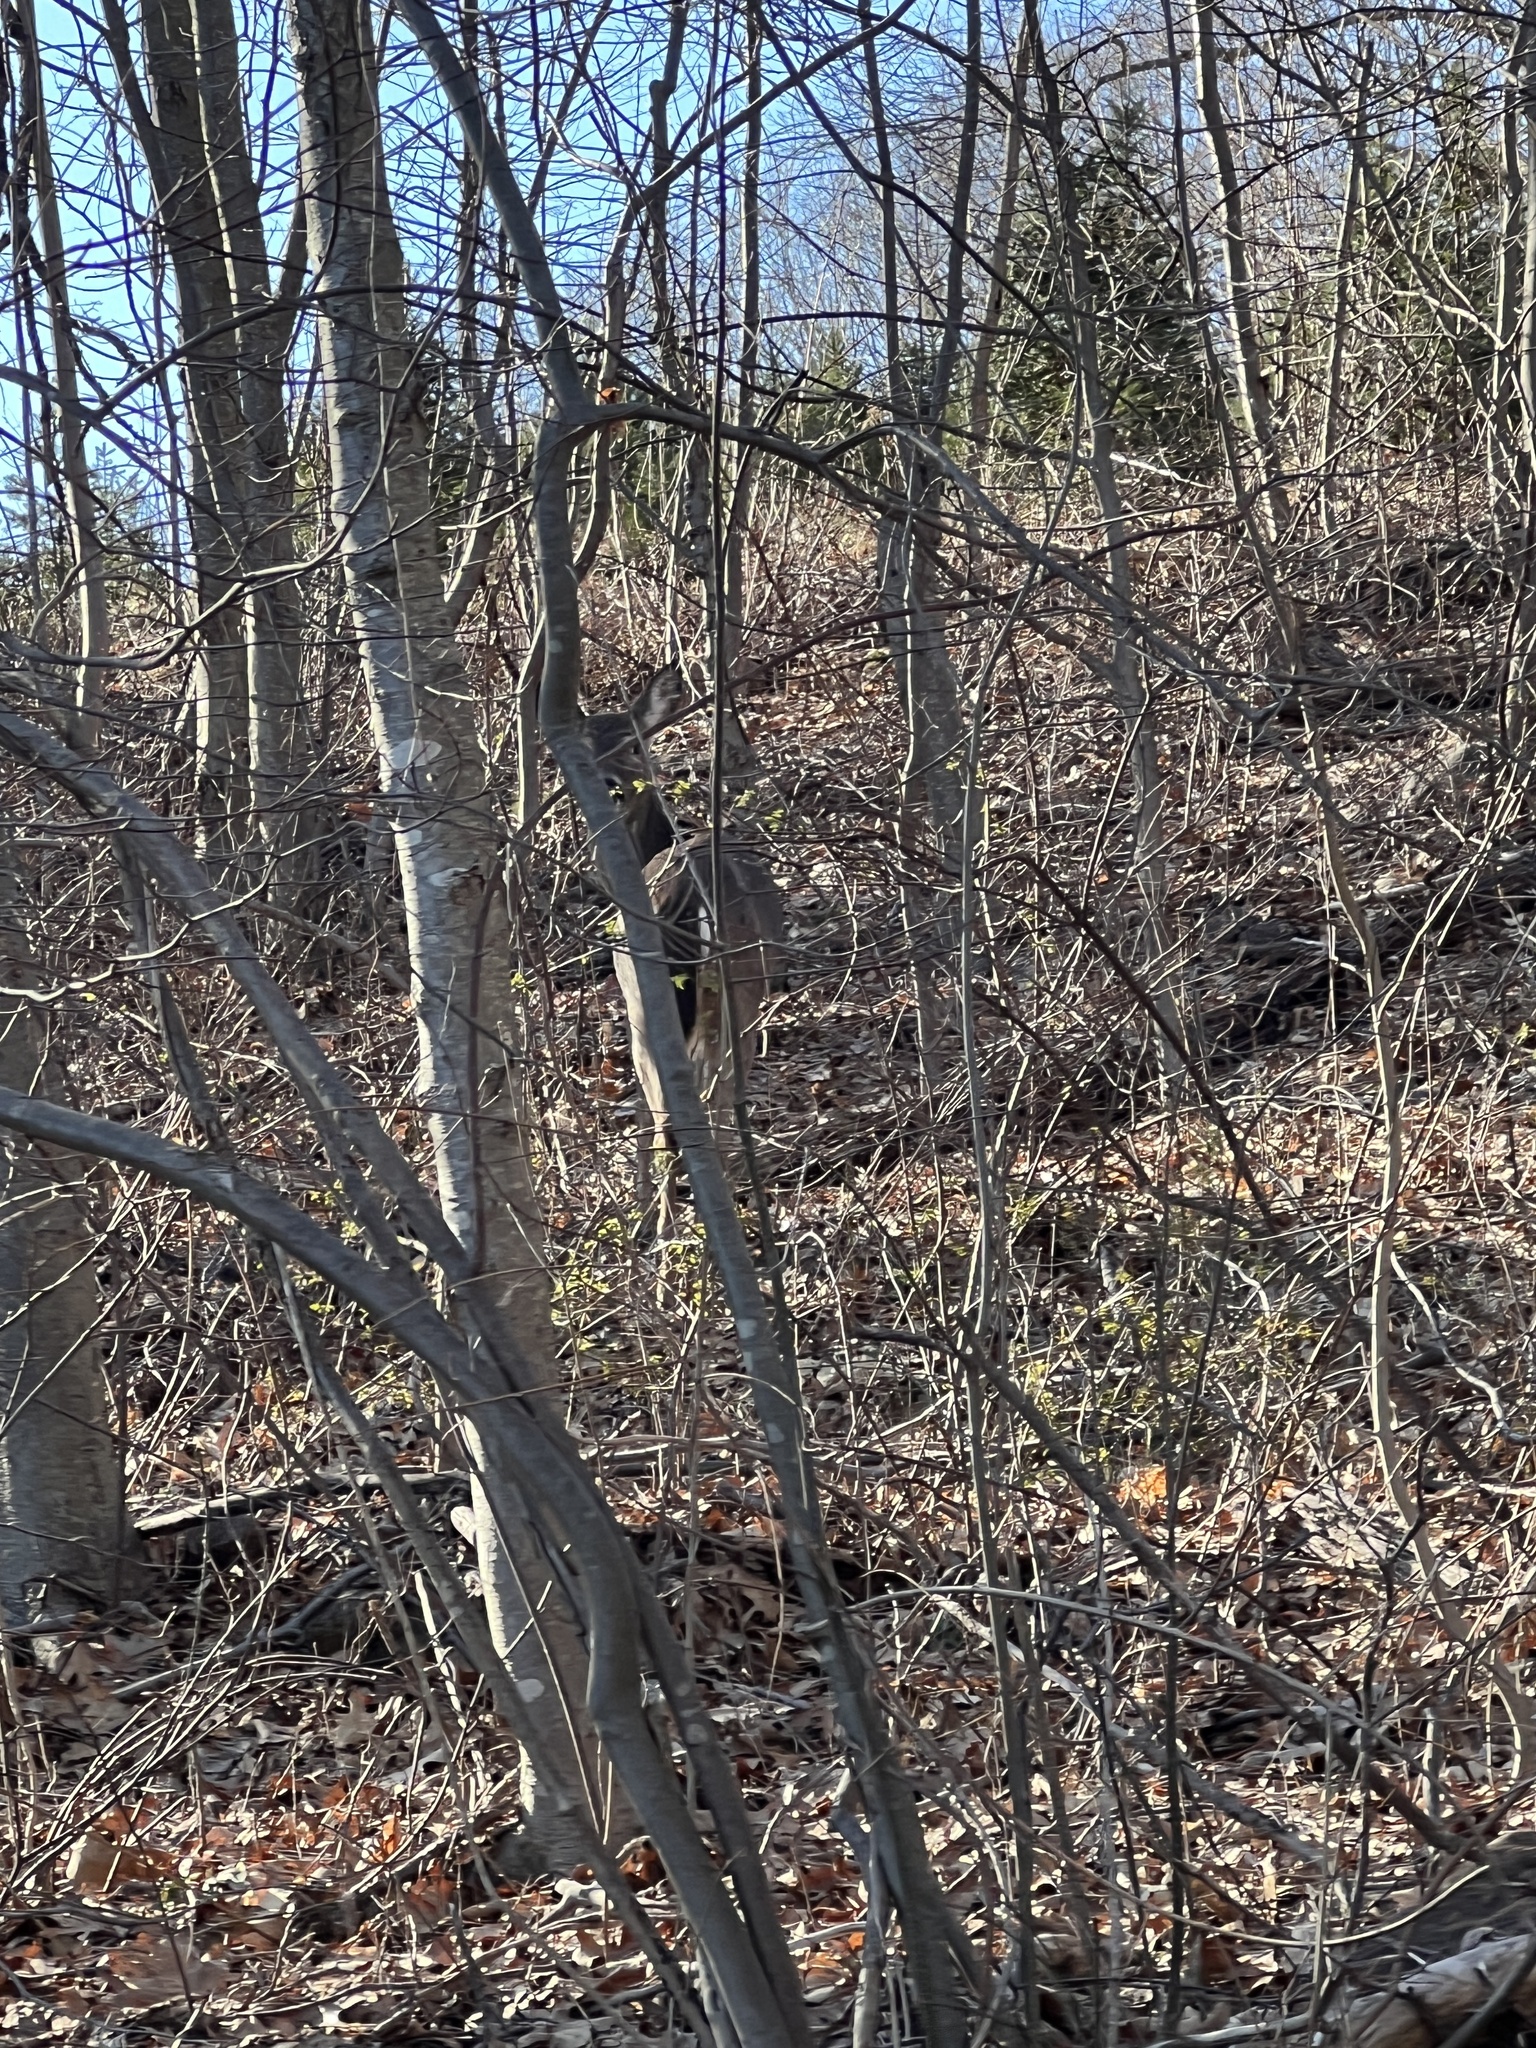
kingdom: Animalia
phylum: Chordata
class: Mammalia
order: Artiodactyla
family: Cervidae
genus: Odocoileus
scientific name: Odocoileus virginianus
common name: White-tailed deer
